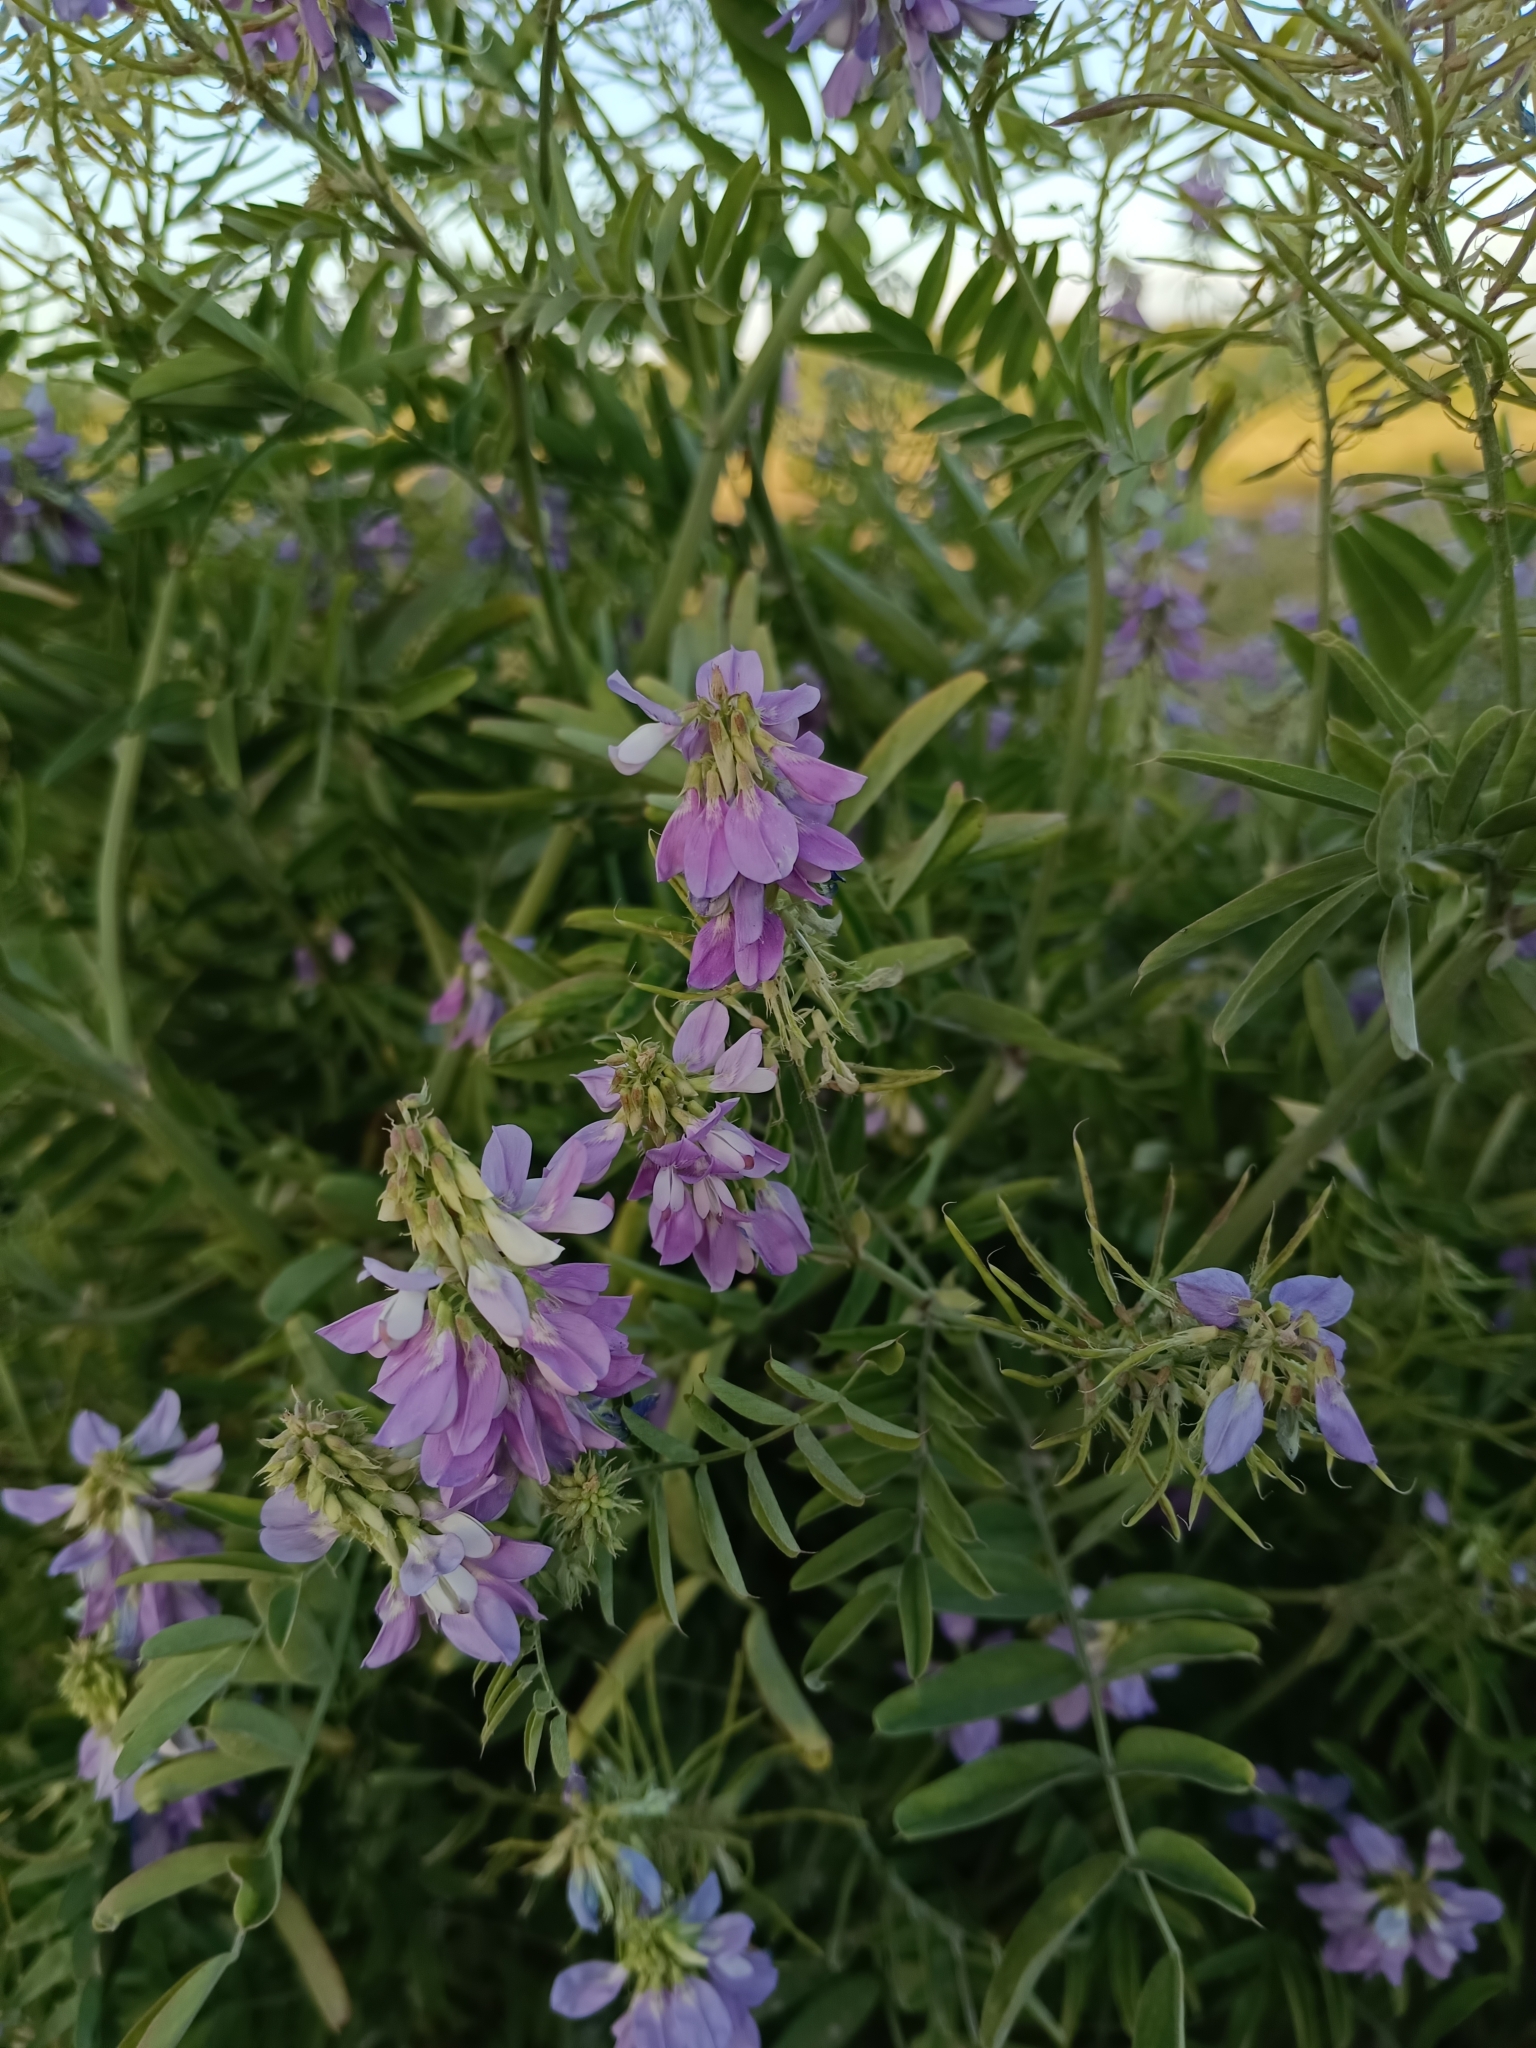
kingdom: Plantae
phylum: Tracheophyta
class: Magnoliopsida
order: Fabales
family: Fabaceae
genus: Galega
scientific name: Galega officinalis
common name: Goat's-rue
